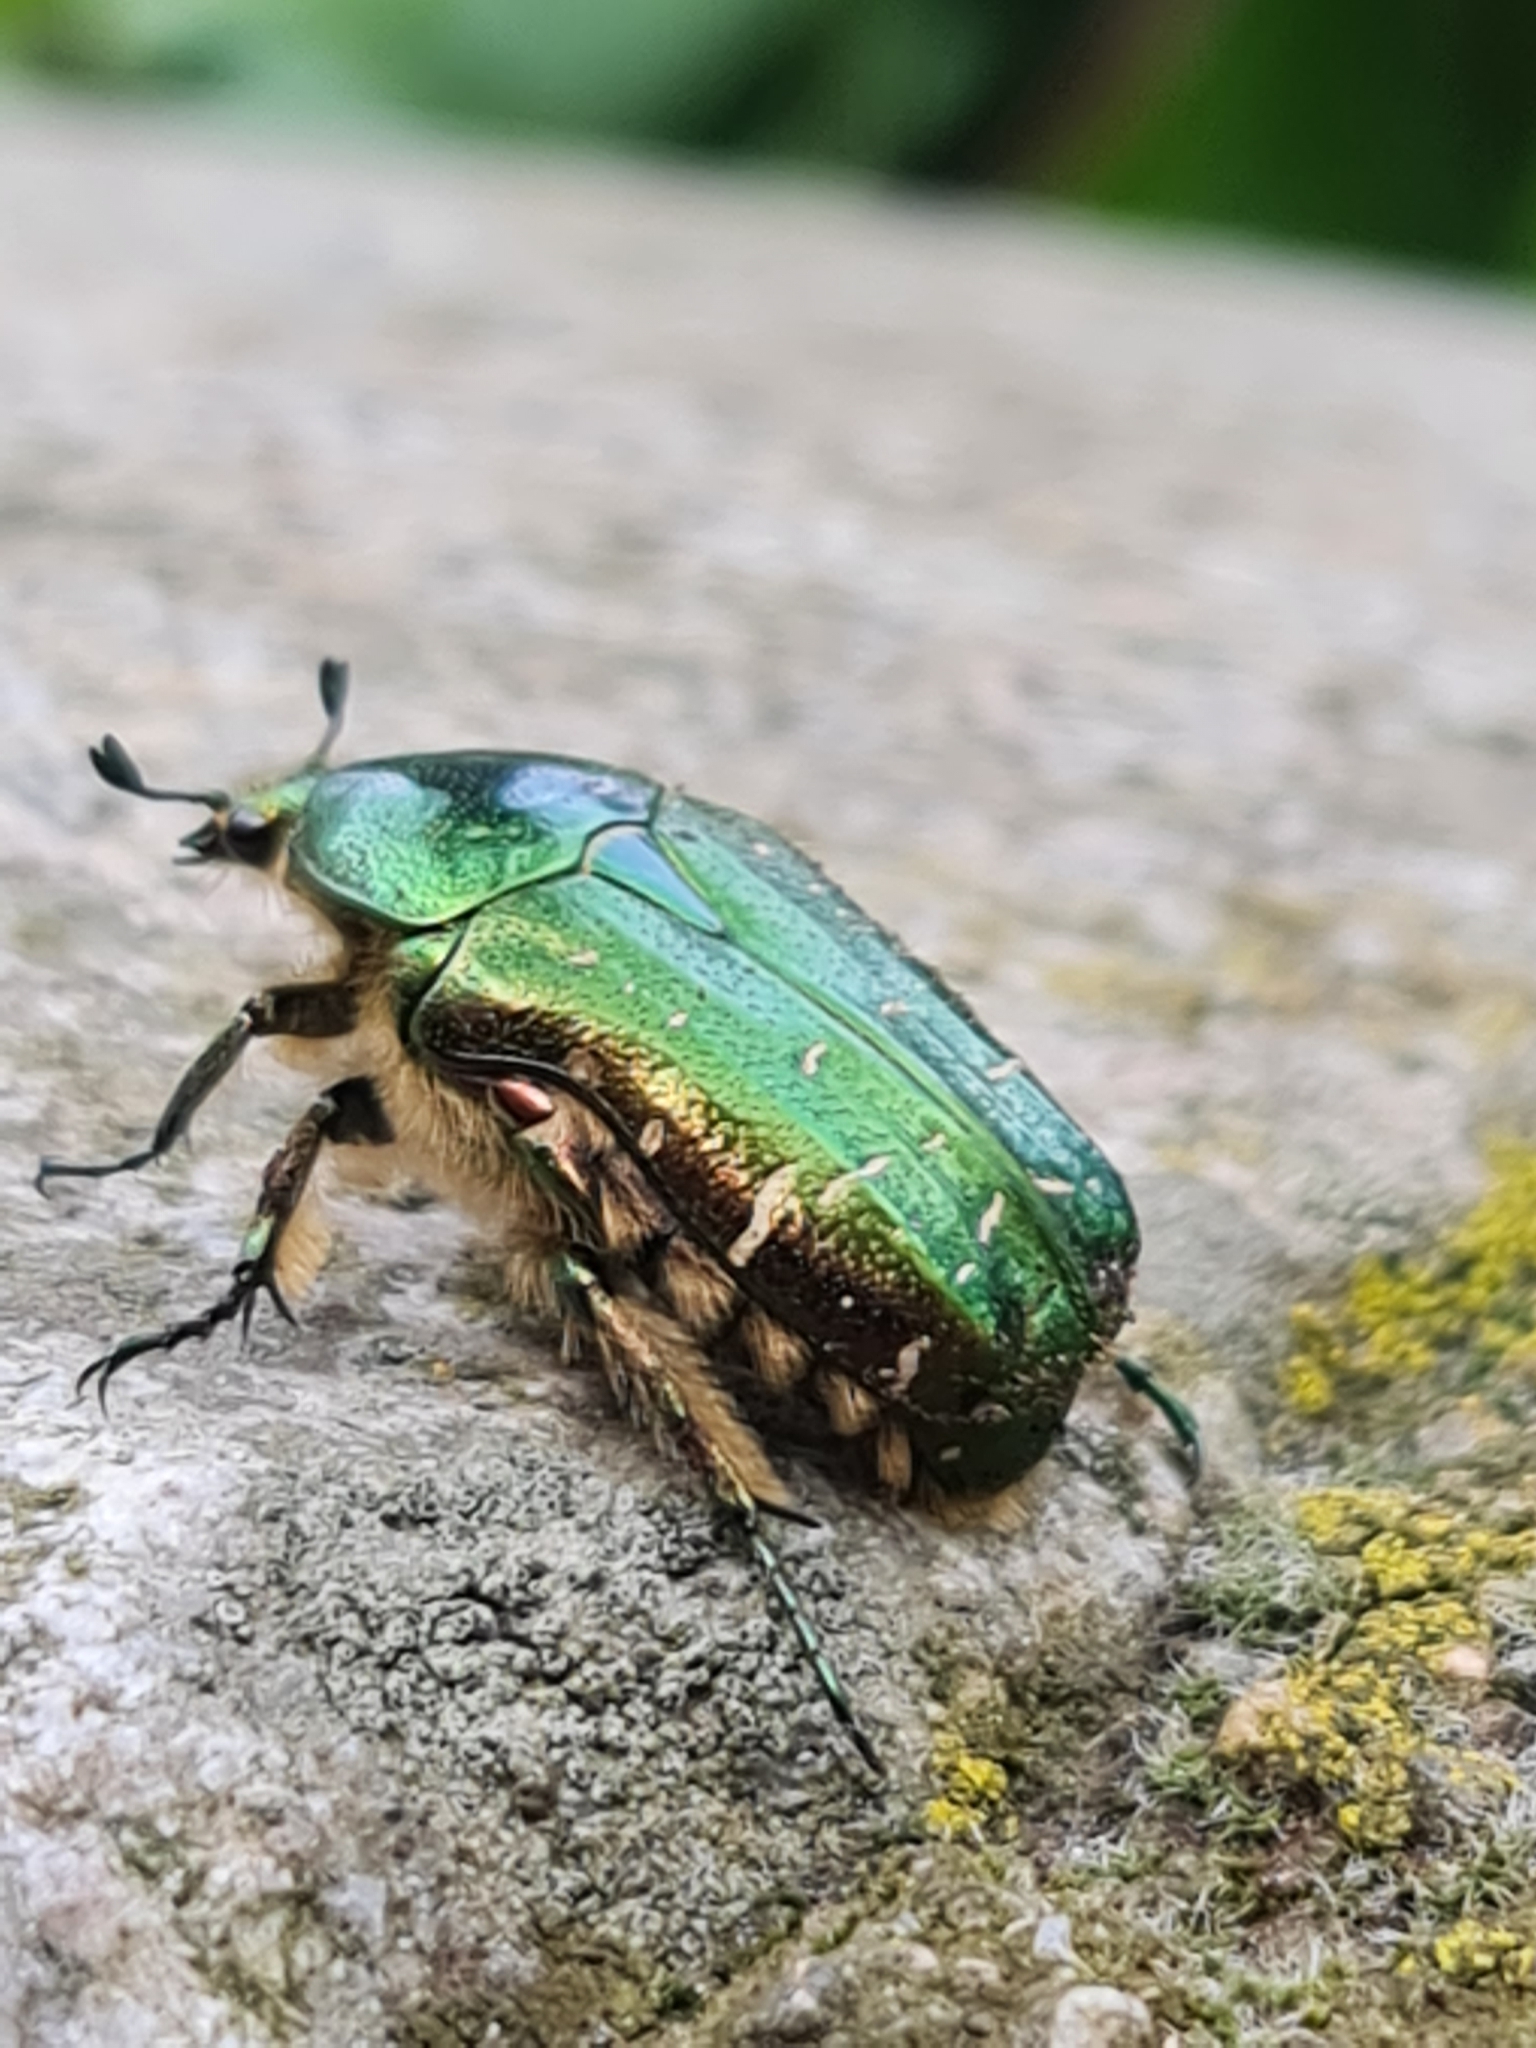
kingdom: Animalia
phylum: Arthropoda
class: Insecta
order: Coleoptera
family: Scarabaeidae
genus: Cetonia
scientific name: Cetonia aurata
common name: Rose chafer
